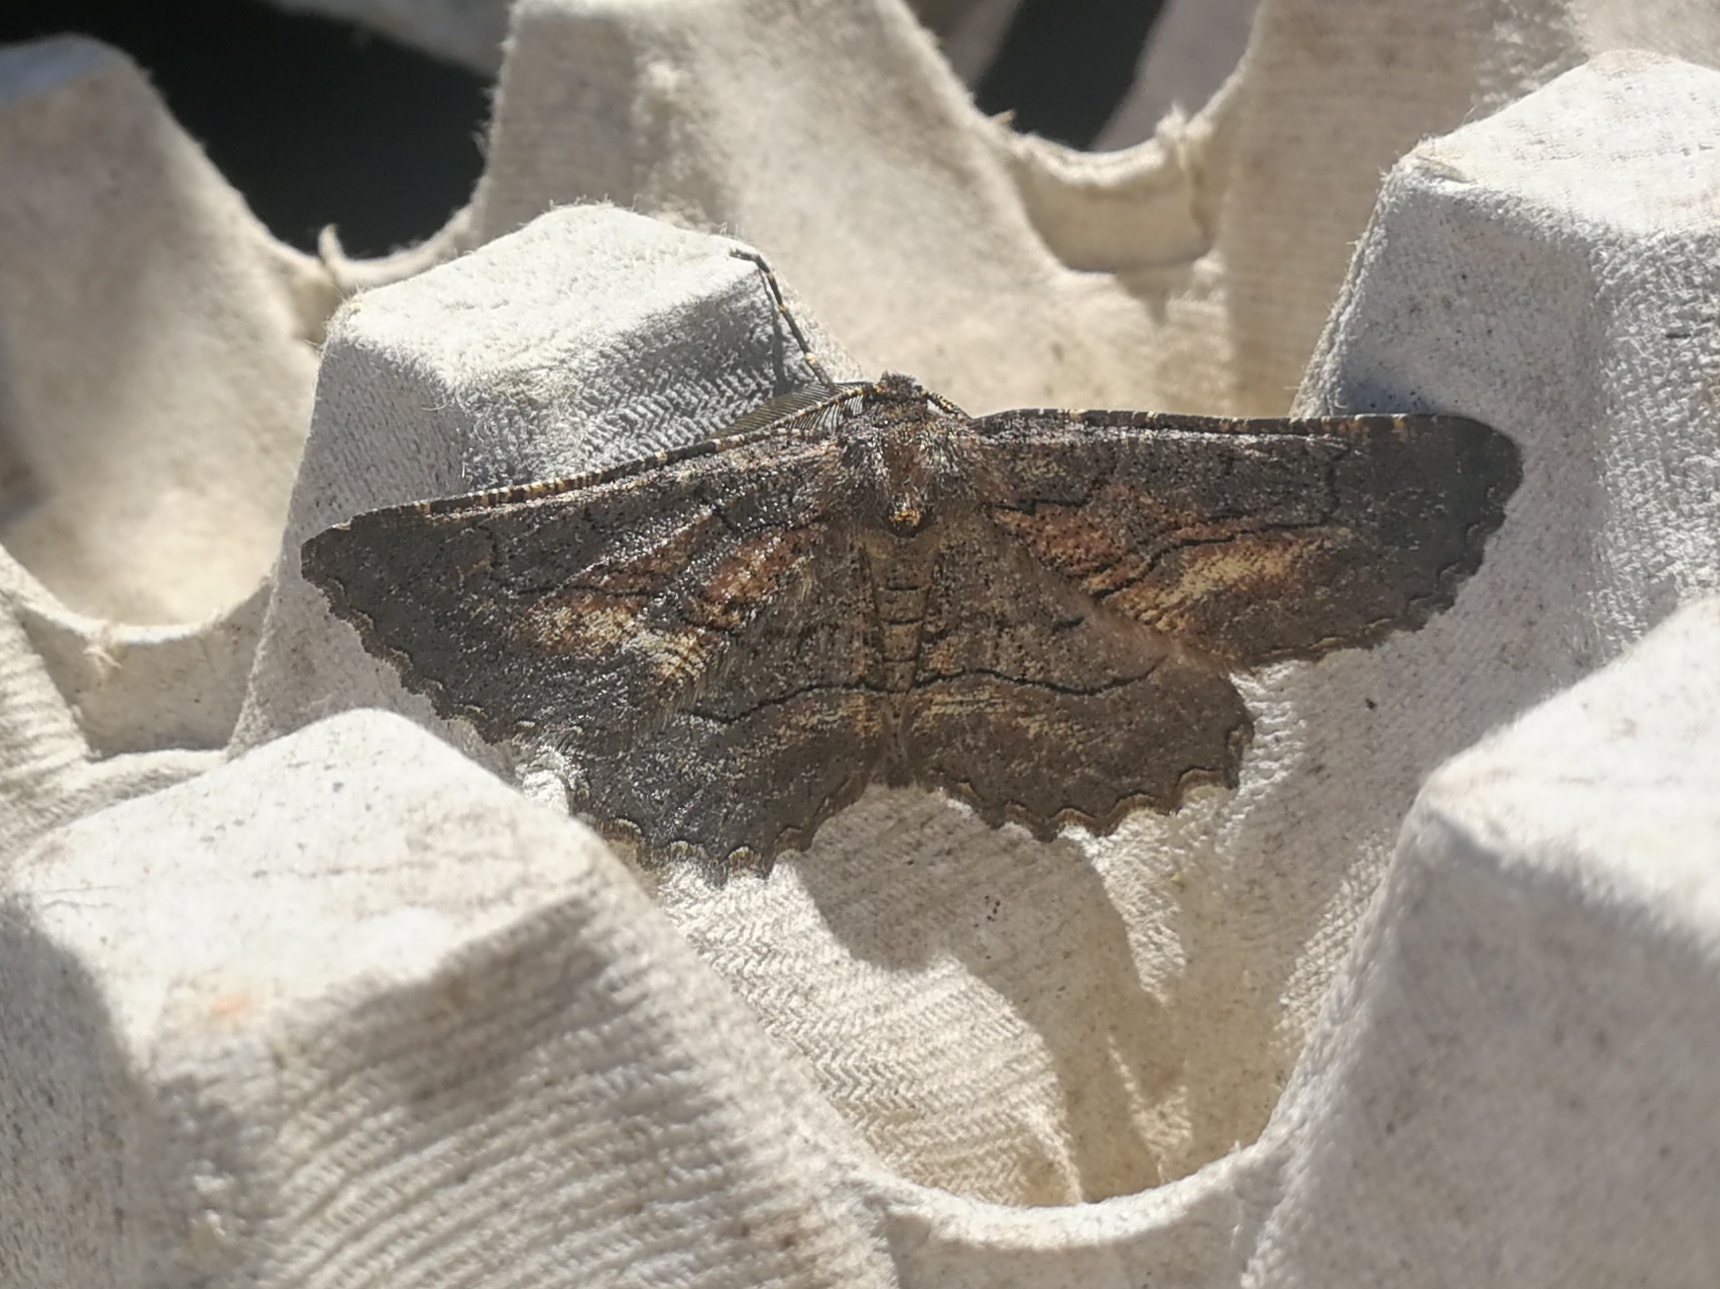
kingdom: Animalia
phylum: Arthropoda
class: Insecta
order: Lepidoptera
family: Geometridae
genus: Nychiodes
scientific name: Nychiodes notarioi
